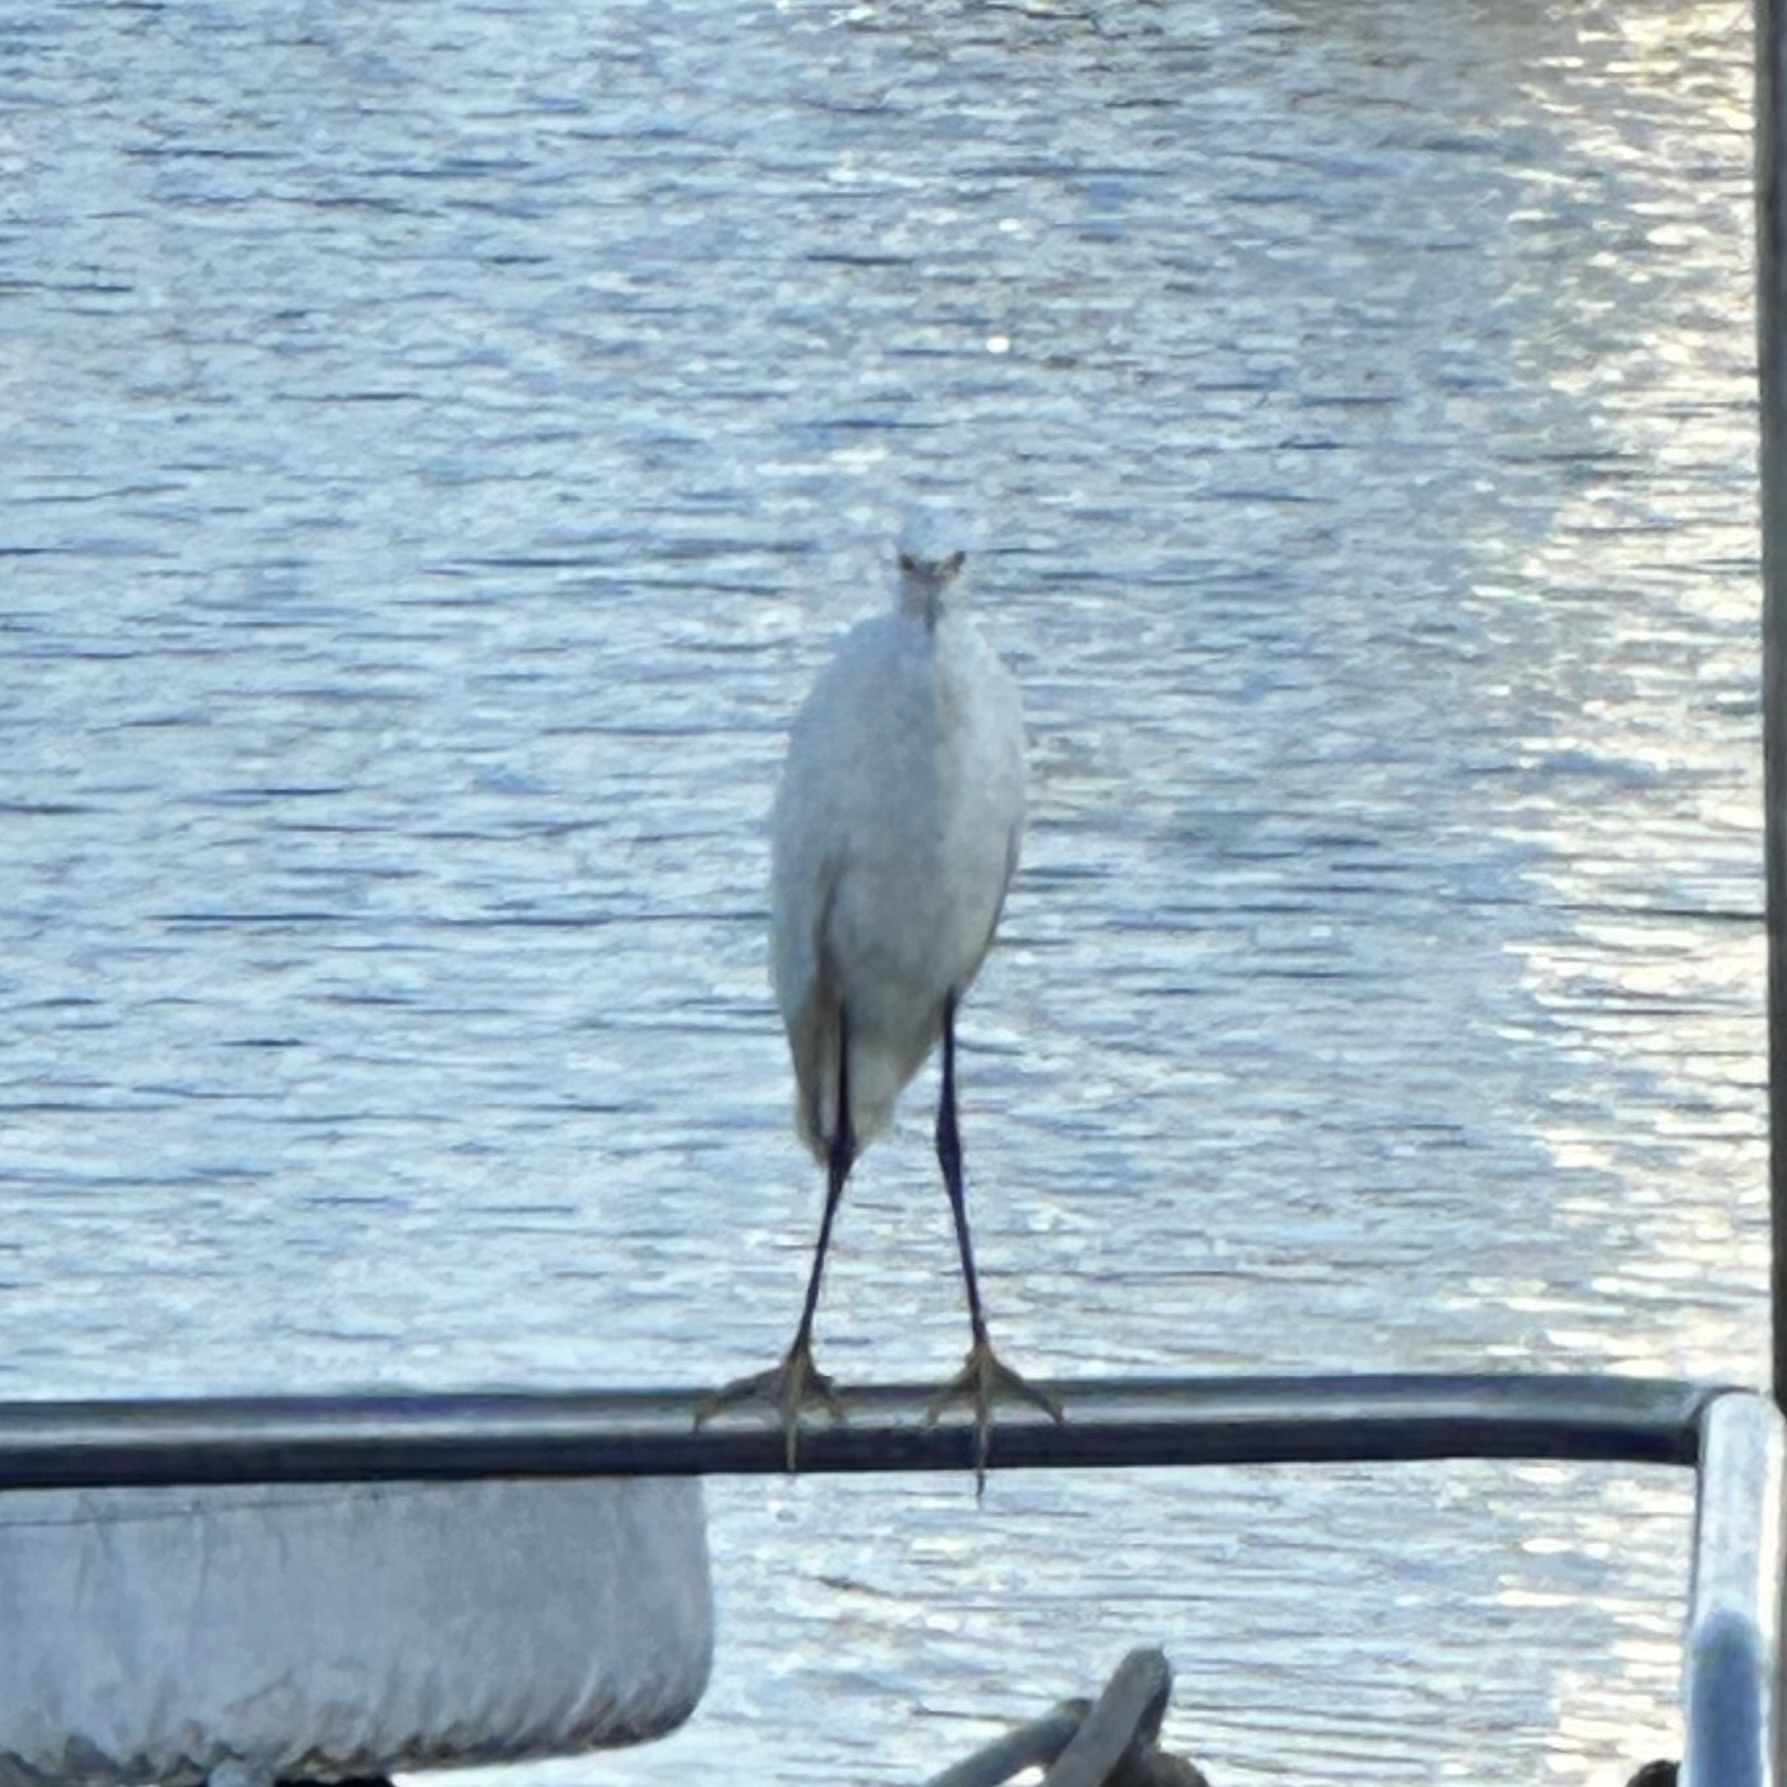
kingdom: Animalia
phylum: Chordata
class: Aves
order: Pelecaniformes
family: Ardeidae
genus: Egretta
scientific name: Egretta thula
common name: Snowy egret
